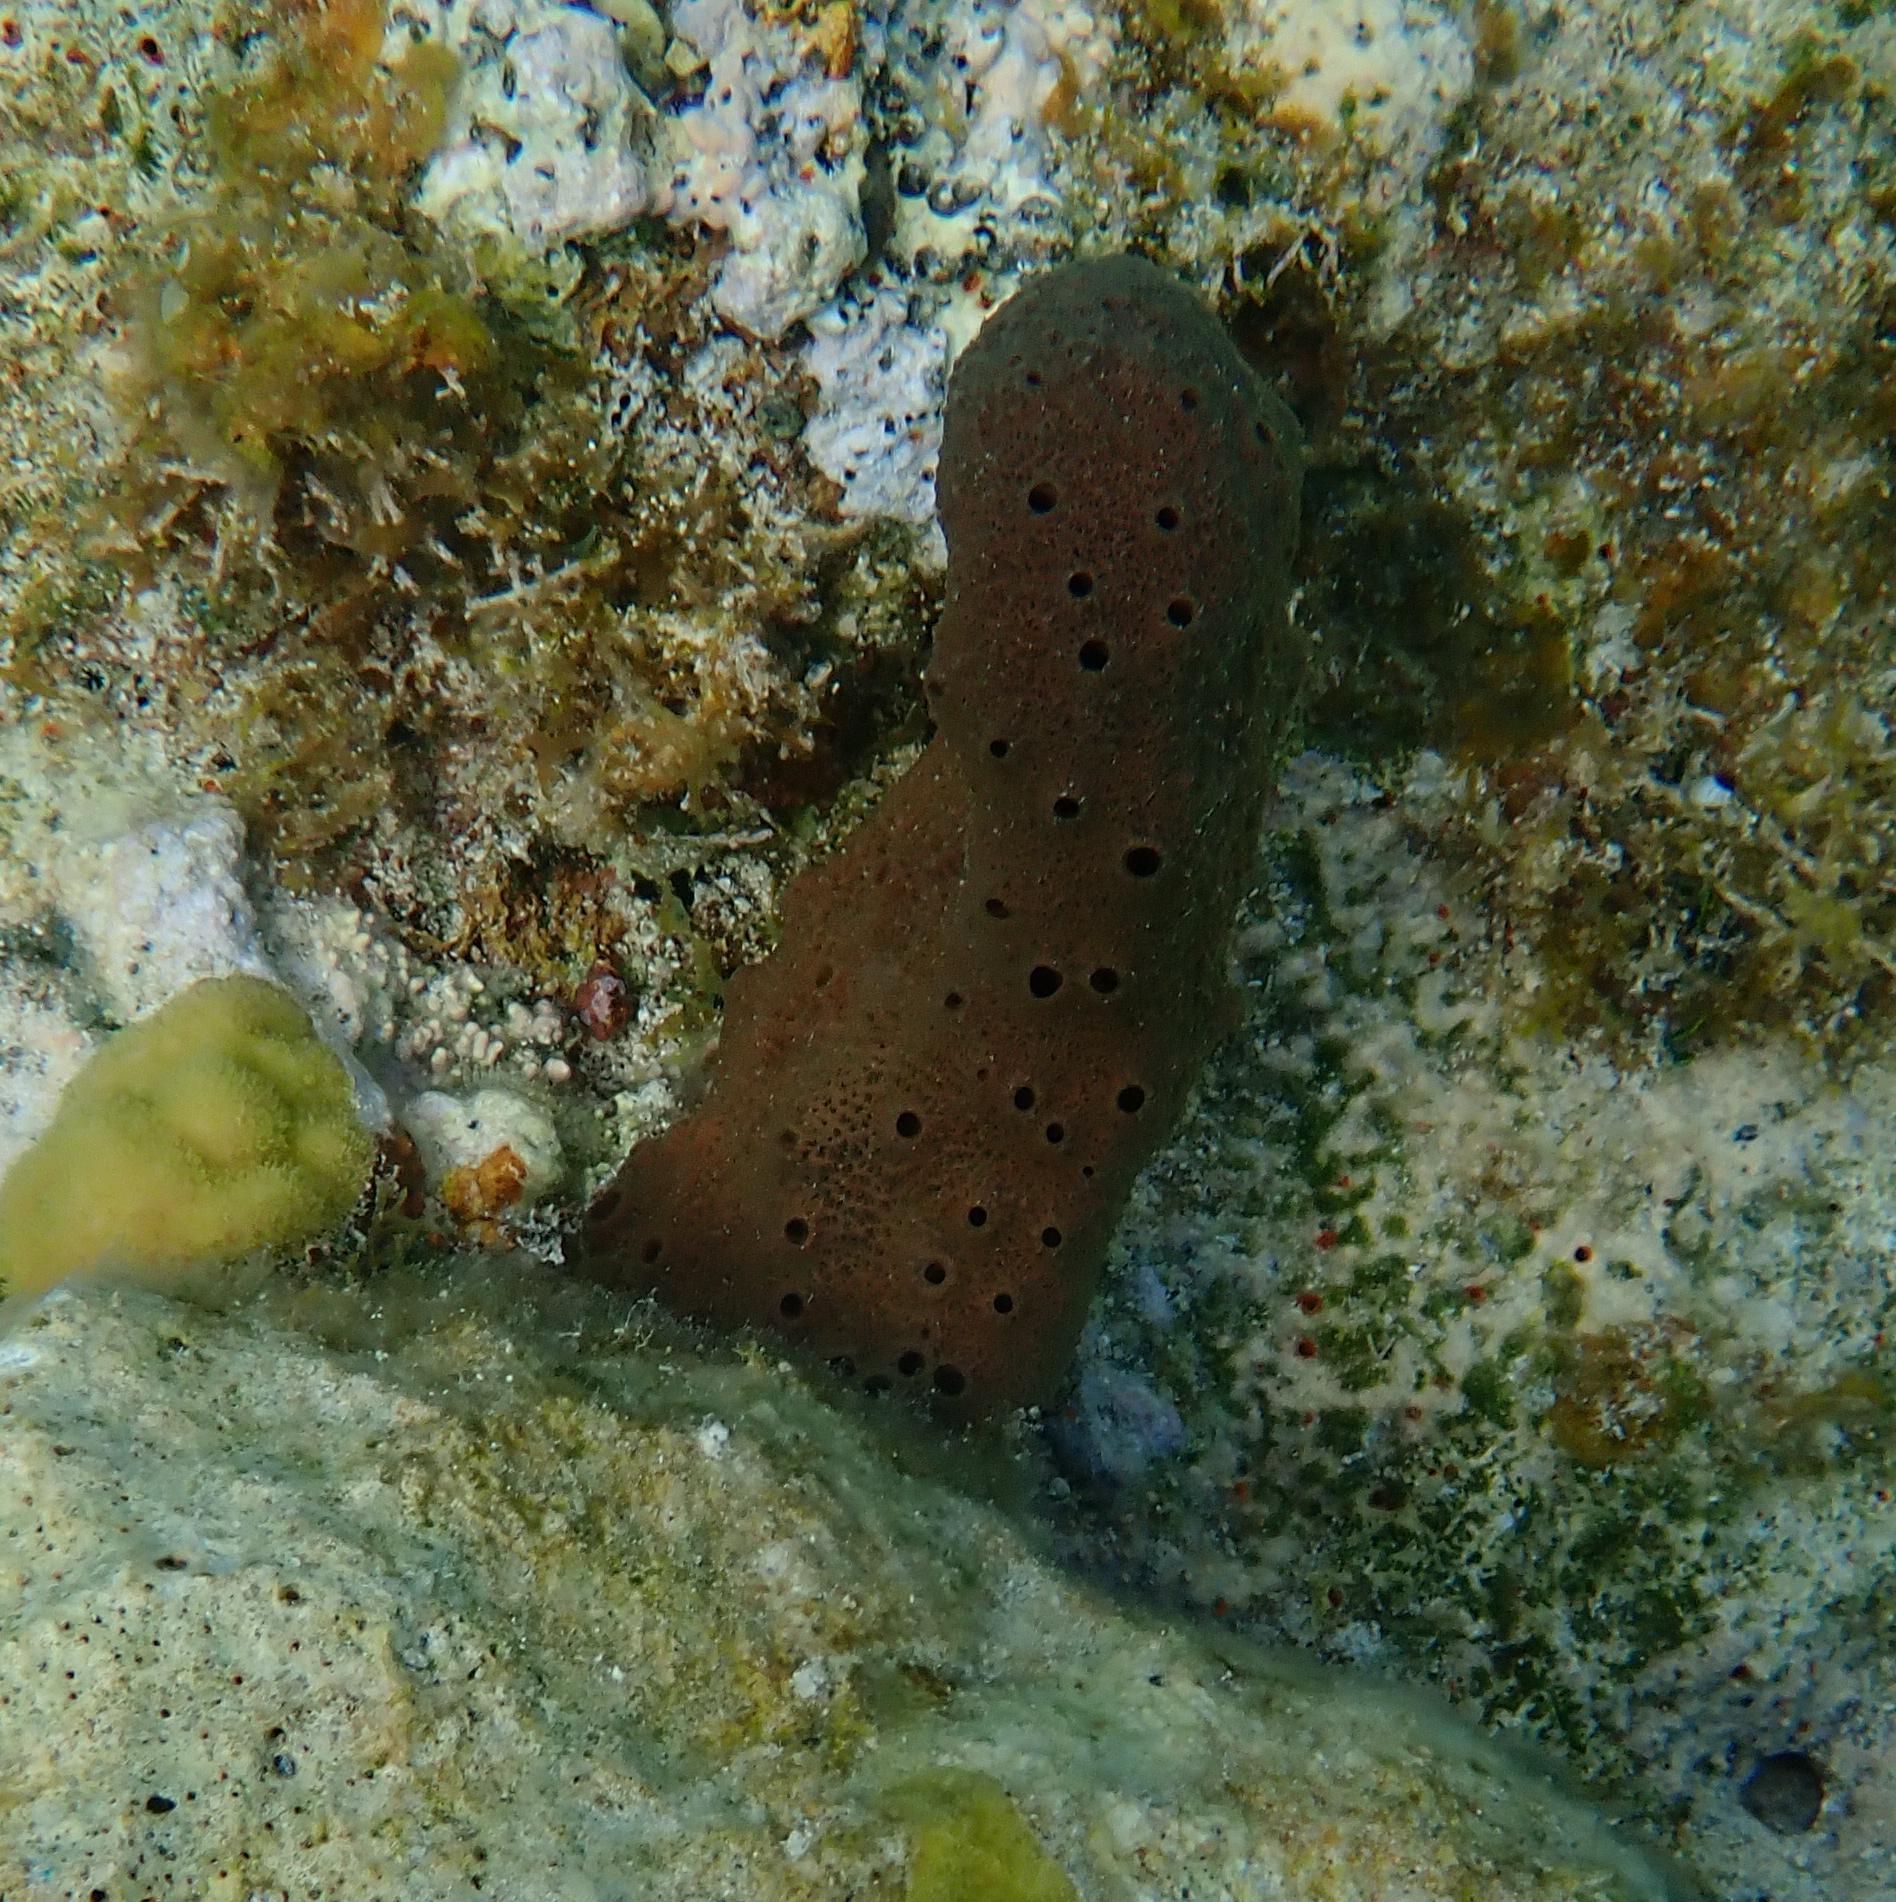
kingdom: Animalia
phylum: Porifera
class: Demospongiae
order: Haplosclerida
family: Niphatidae
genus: Amphimedon
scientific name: Amphimedon compressa
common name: Red sponge
